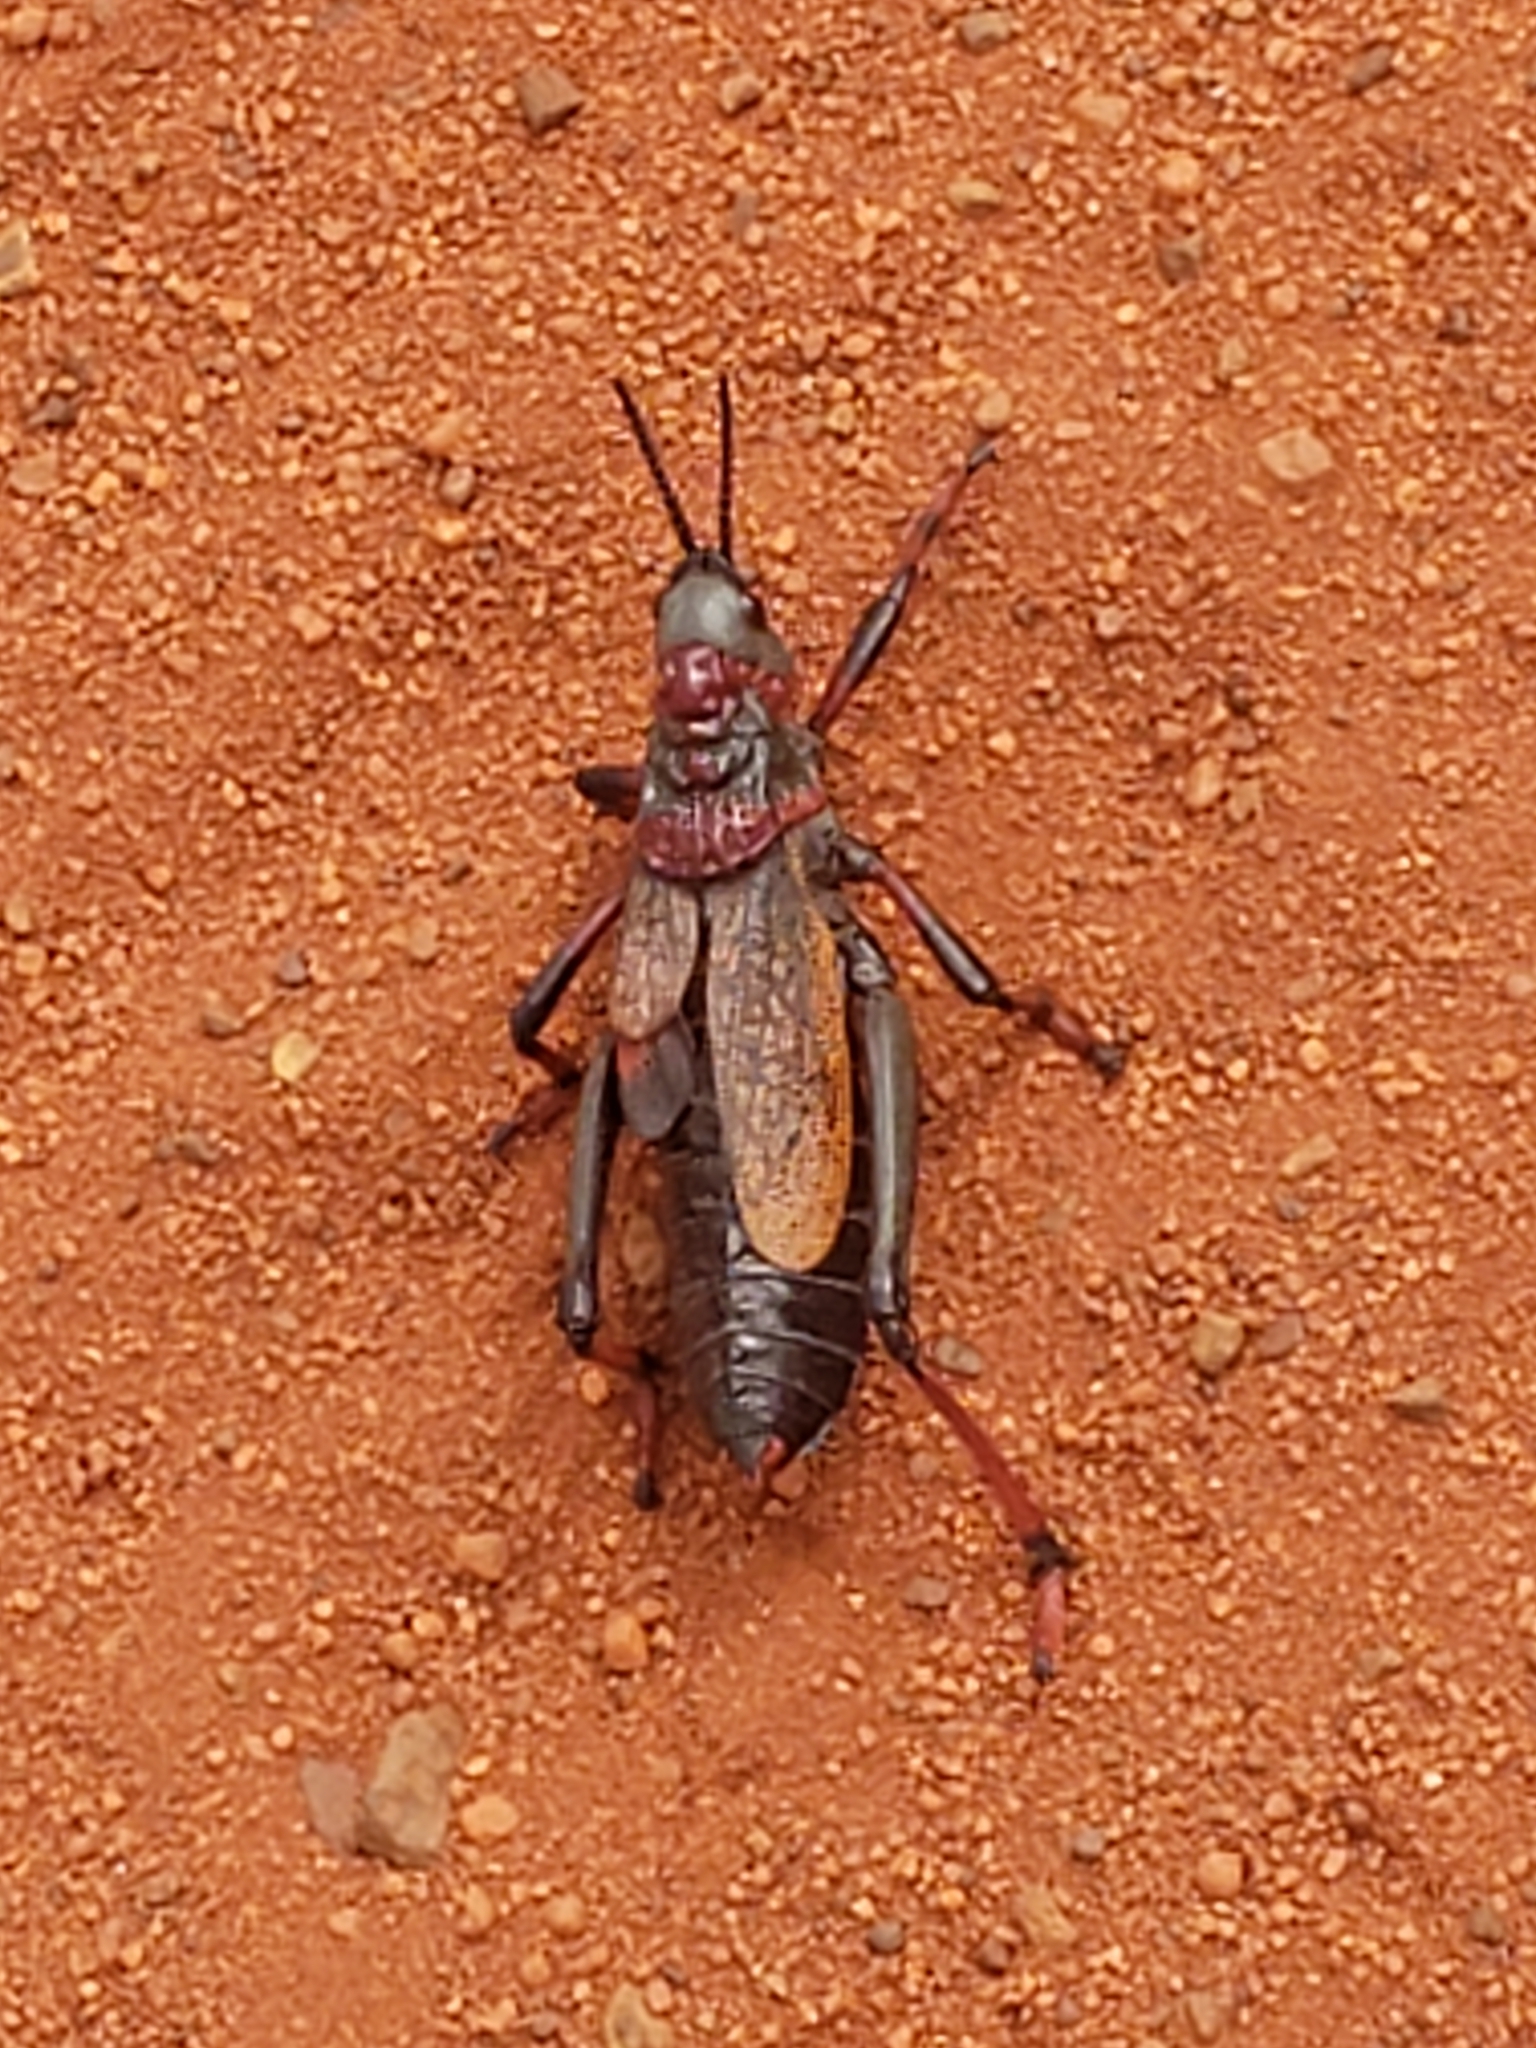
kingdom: Animalia
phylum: Arthropoda
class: Insecta
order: Orthoptera
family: Pyrgomorphidae
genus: Dictyophorus
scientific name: Dictyophorus spumans
